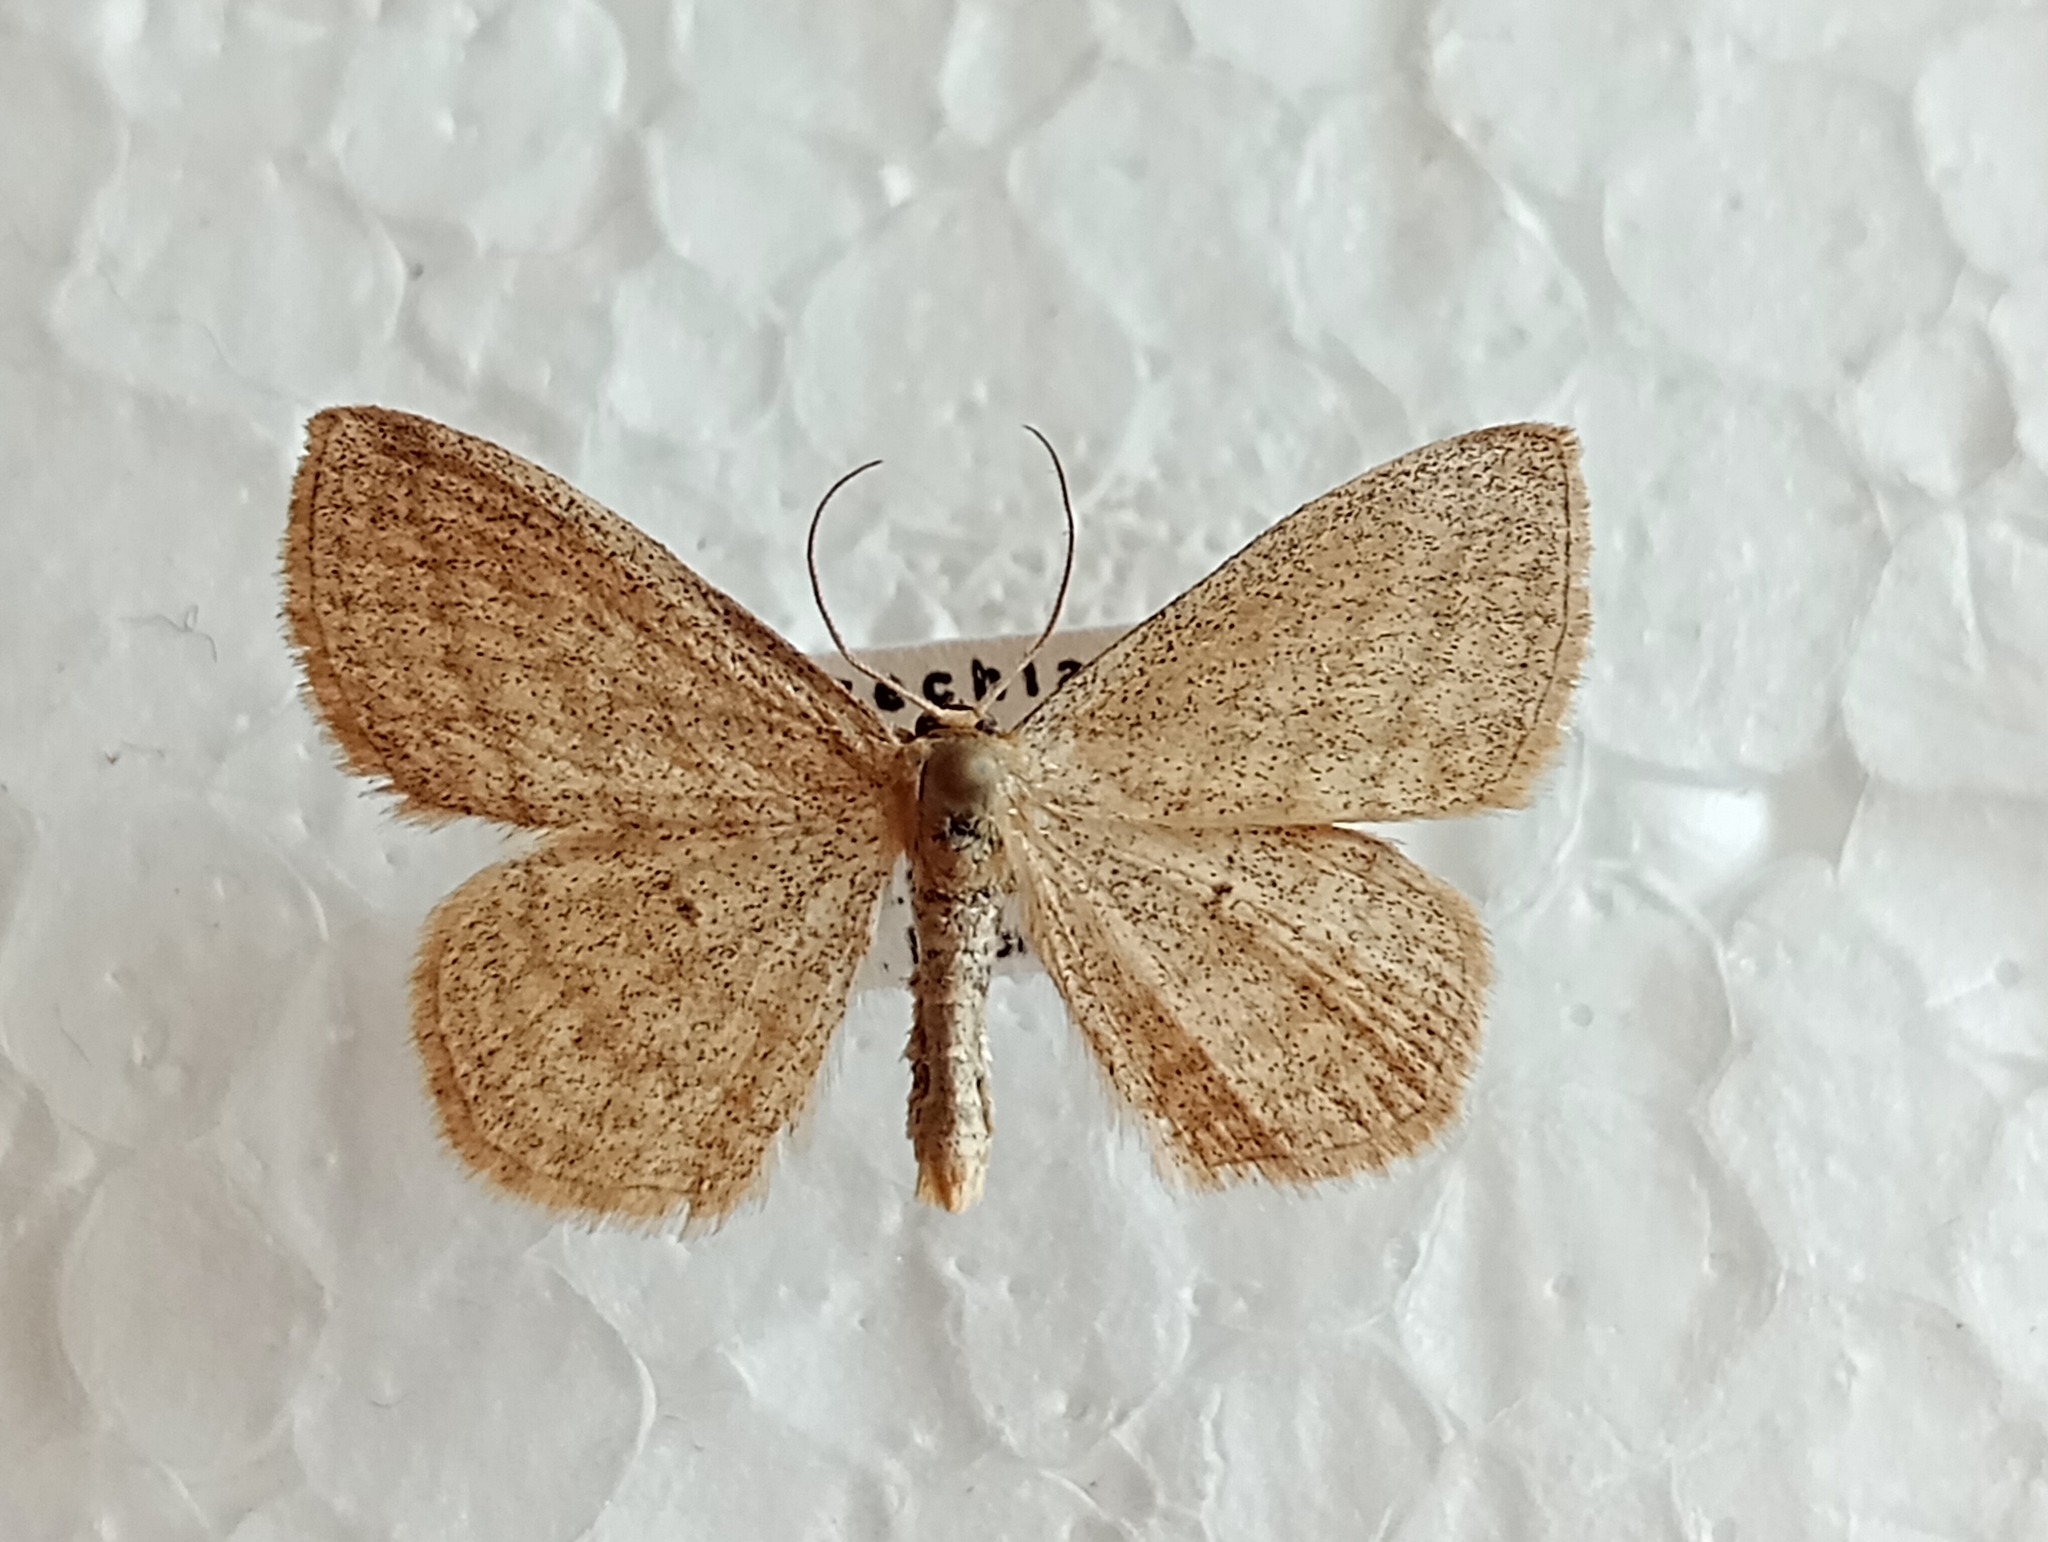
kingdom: Animalia
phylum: Arthropoda
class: Insecta
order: Lepidoptera
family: Geometridae
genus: Scopula
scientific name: Scopula virgulata
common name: Streaked wave
